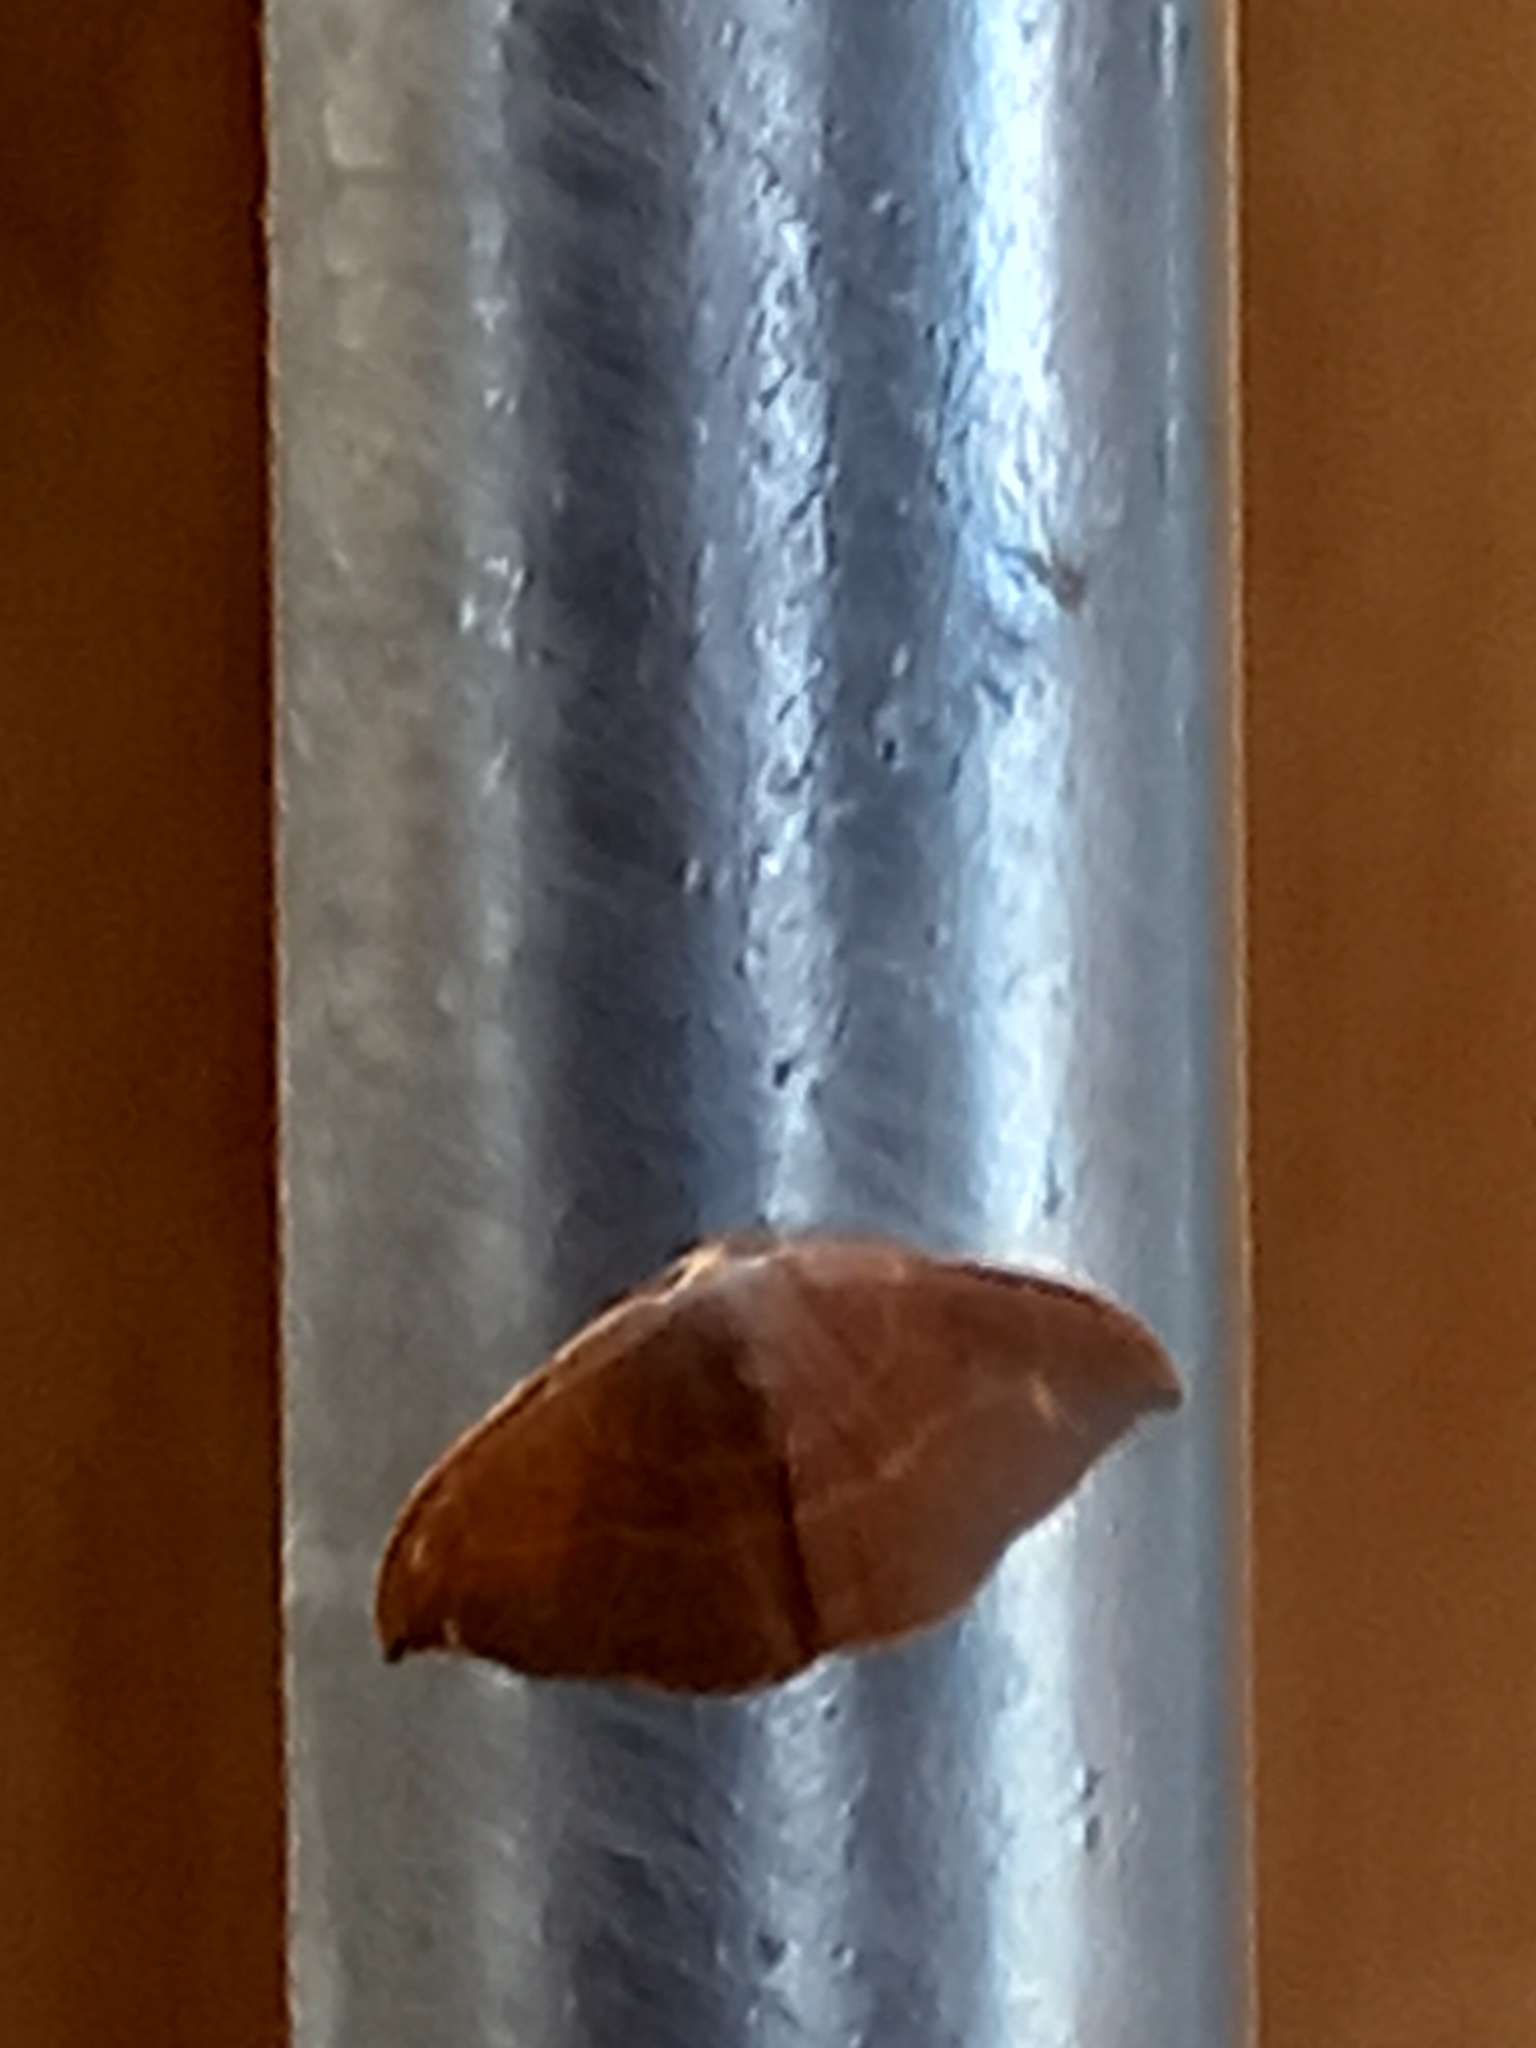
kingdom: Animalia
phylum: Arthropoda
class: Insecta
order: Lepidoptera
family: Drepanidae
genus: Watsonalla
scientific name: Watsonalla binaria
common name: Oak hook-tip
